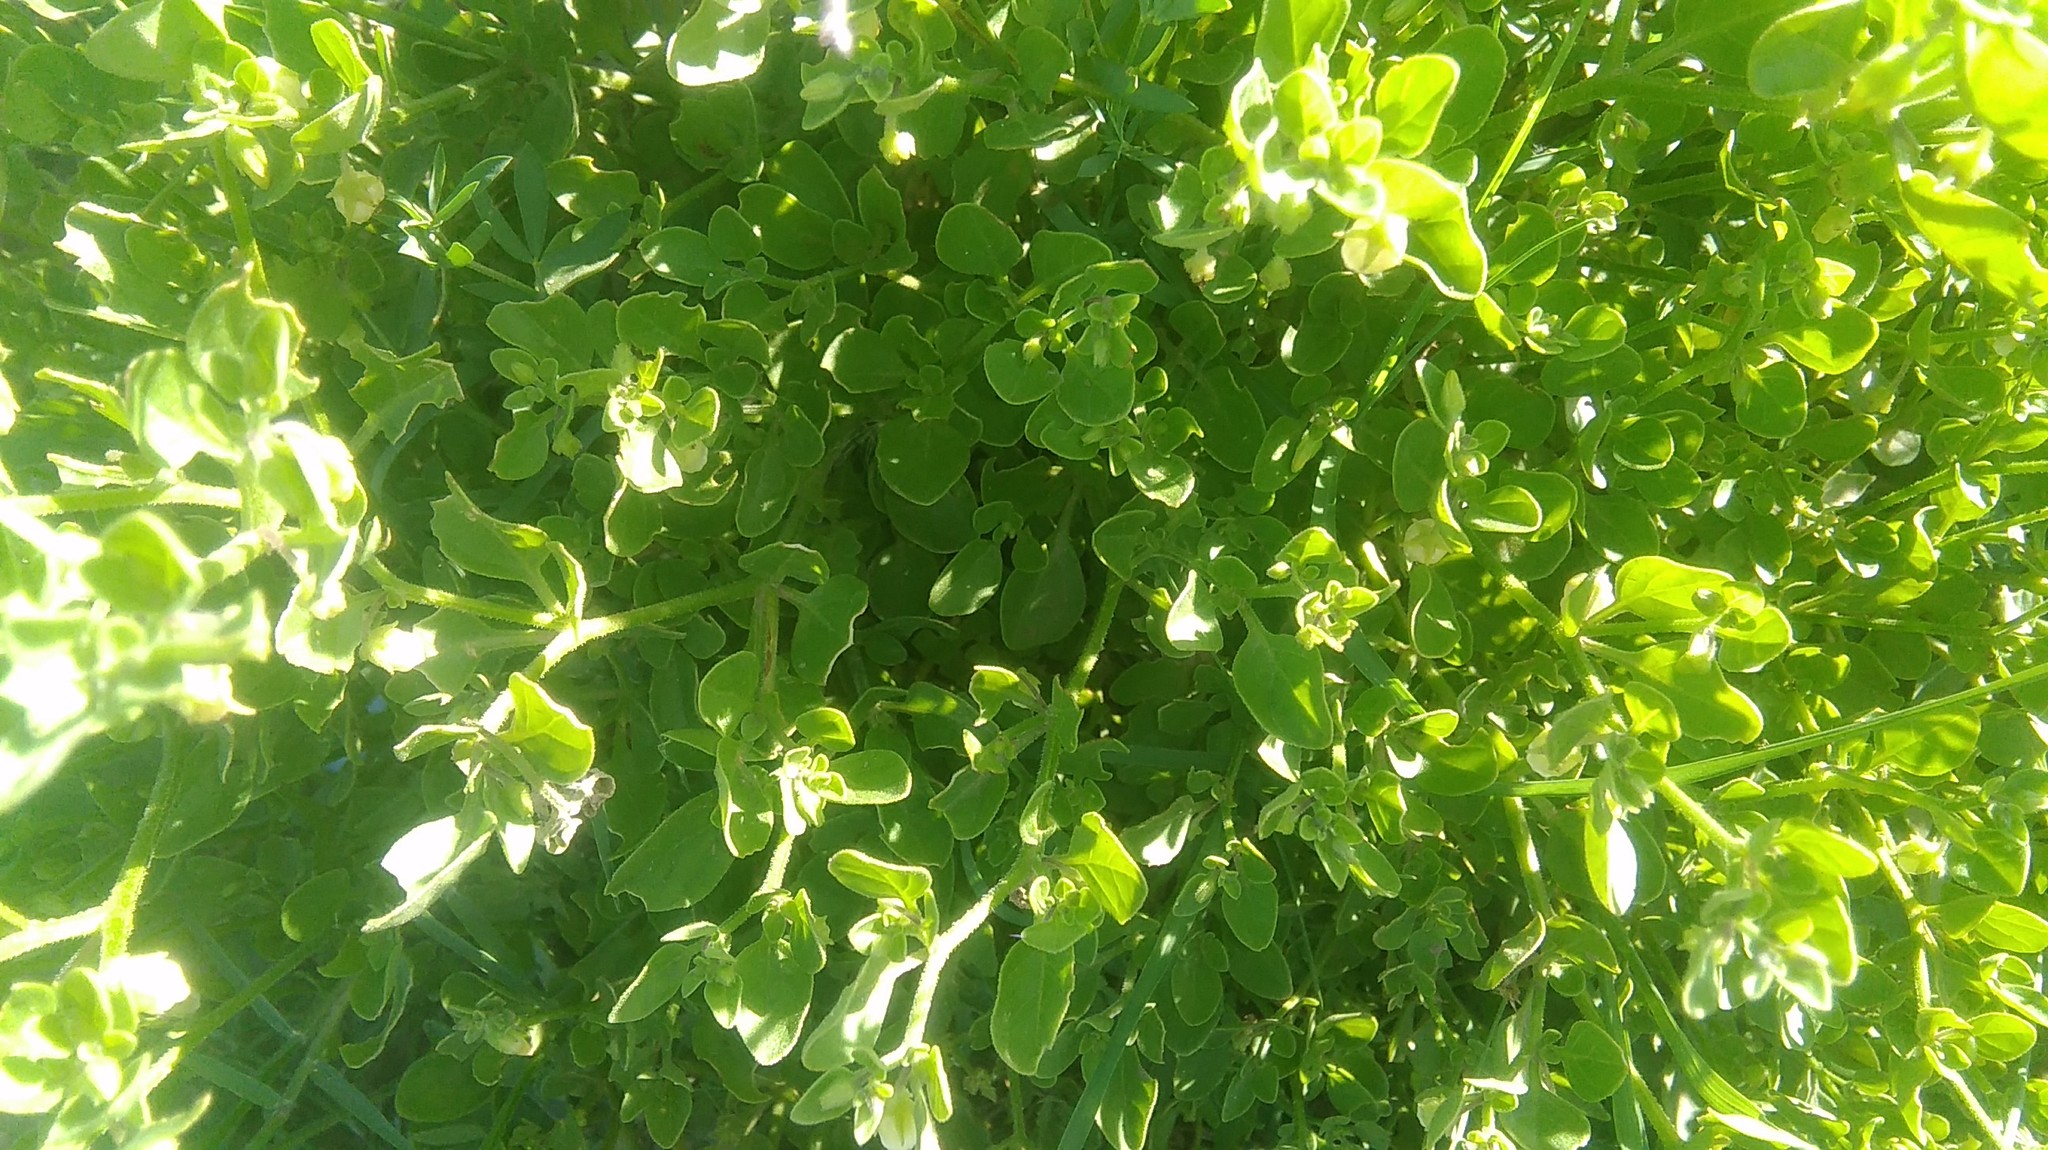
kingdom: Plantae
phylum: Tracheophyta
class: Magnoliopsida
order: Solanales
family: Solanaceae
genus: Salpichroa
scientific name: Salpichroa origanifolia
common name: Lily-of-the-valley-vine
